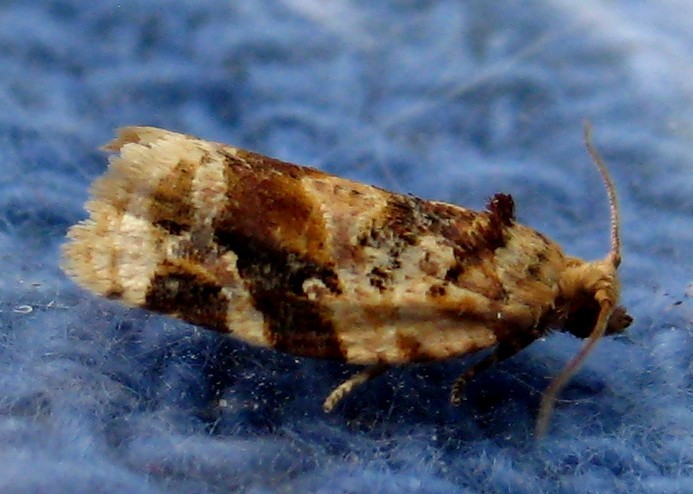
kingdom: Animalia
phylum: Arthropoda
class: Insecta
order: Lepidoptera
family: Tortricidae
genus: Argyrotaenia
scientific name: Argyrotaenia velutinana
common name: Red-banded leafroller moth
